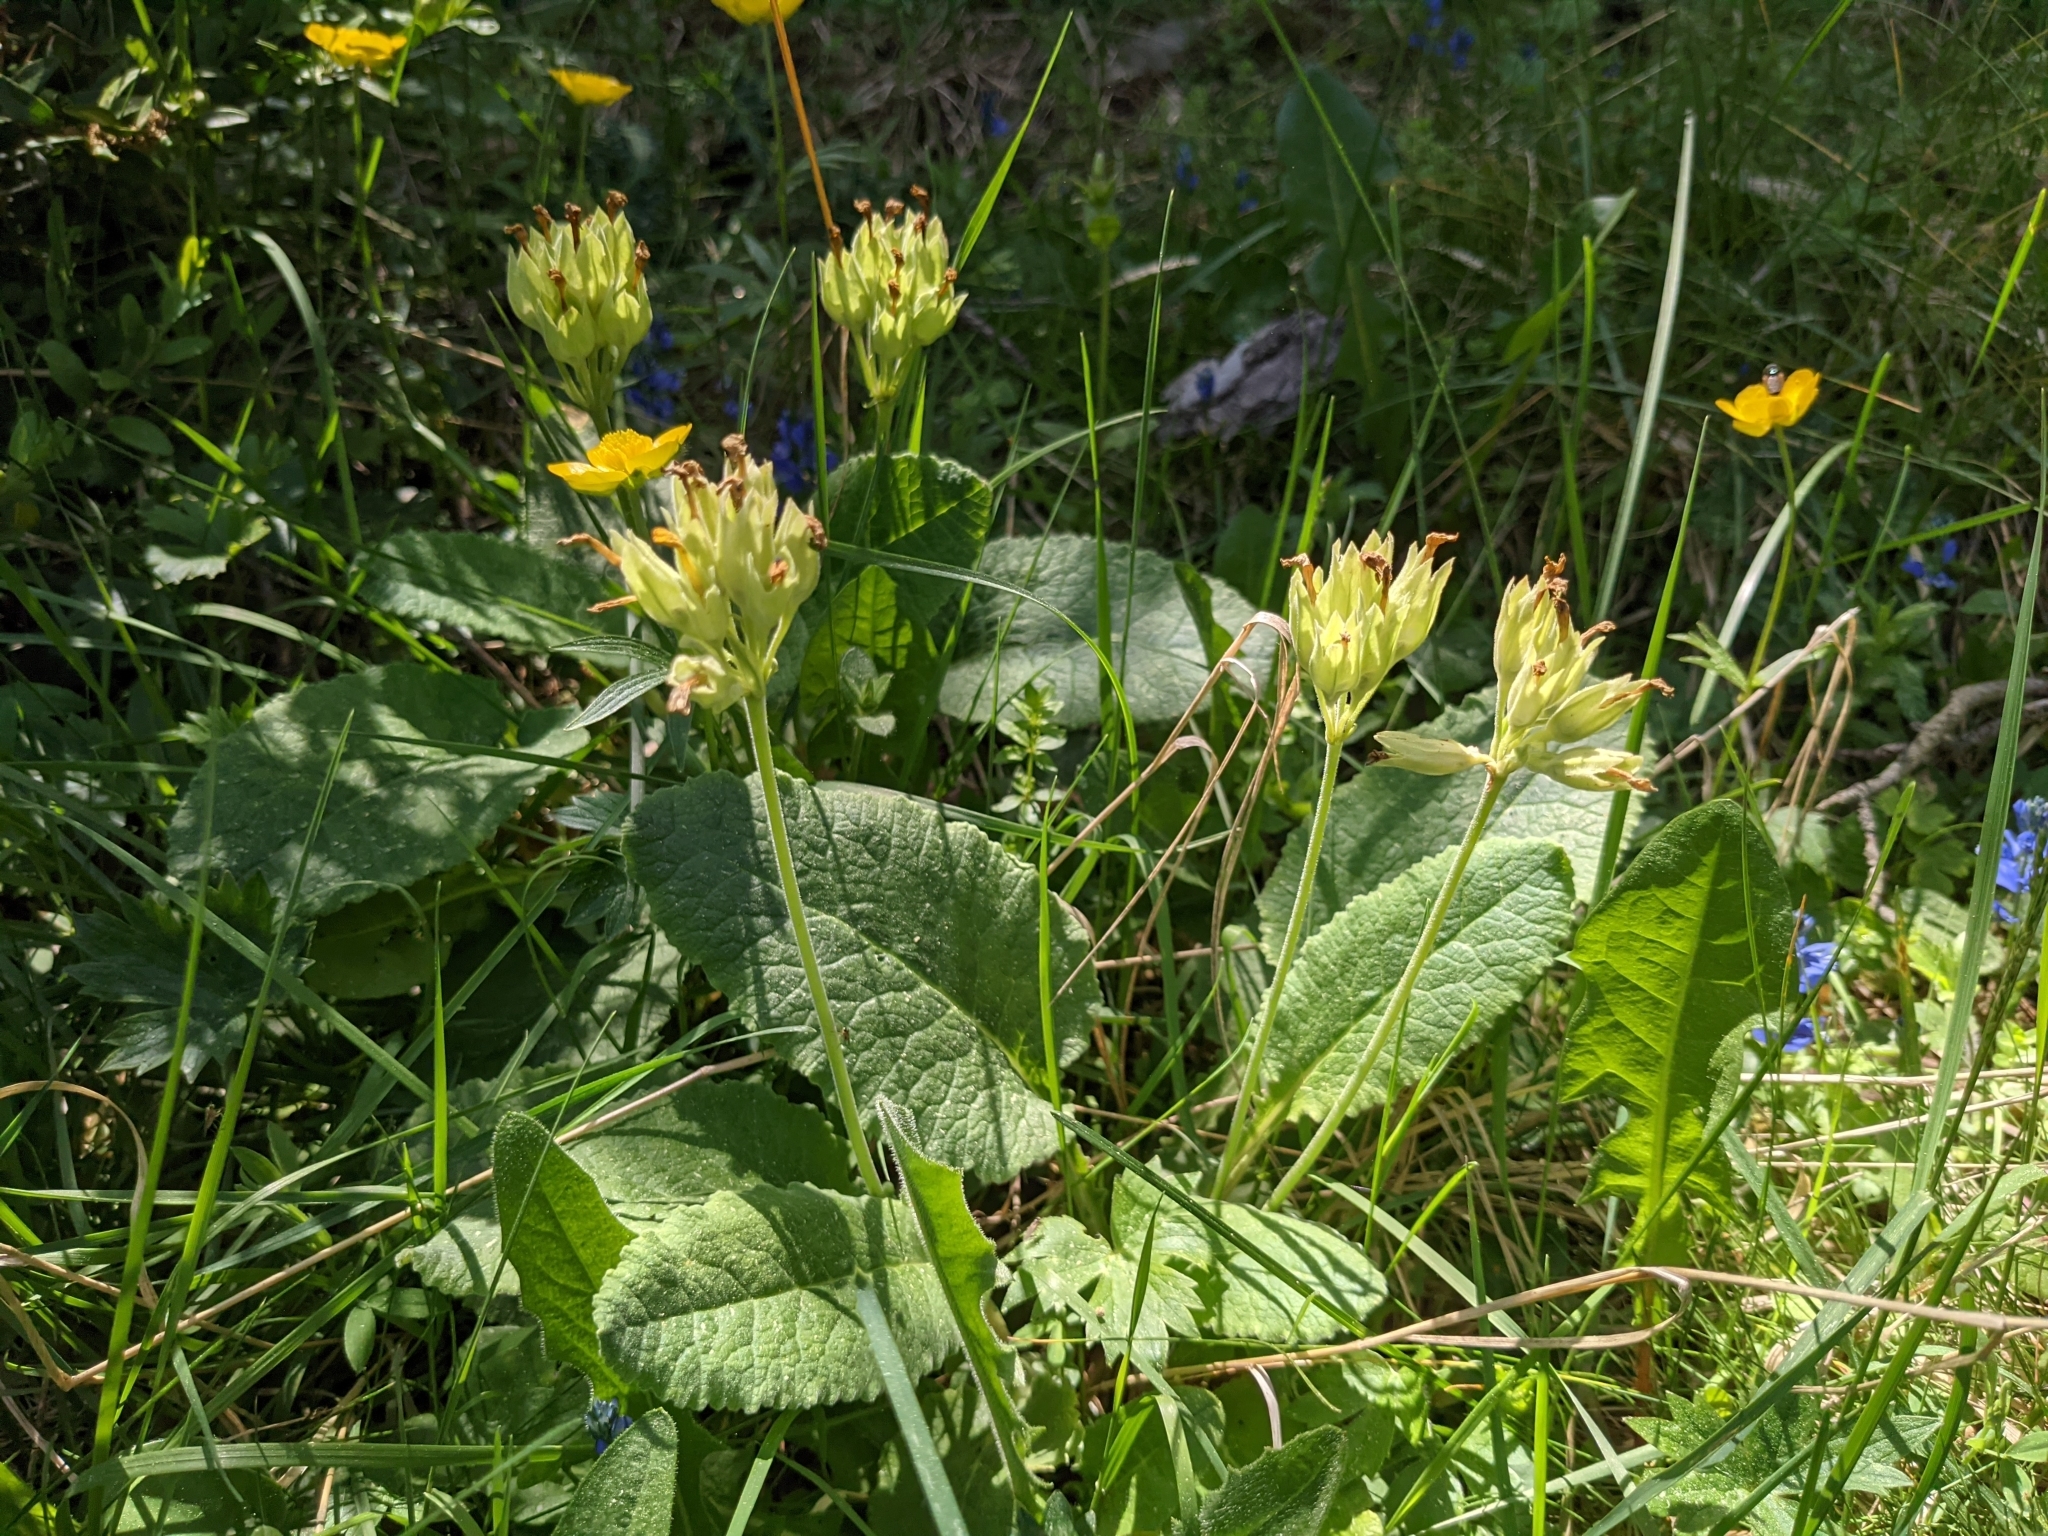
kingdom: Plantae
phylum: Tracheophyta
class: Magnoliopsida
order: Ericales
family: Primulaceae
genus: Primula
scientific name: Primula veris
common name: Cowslip
